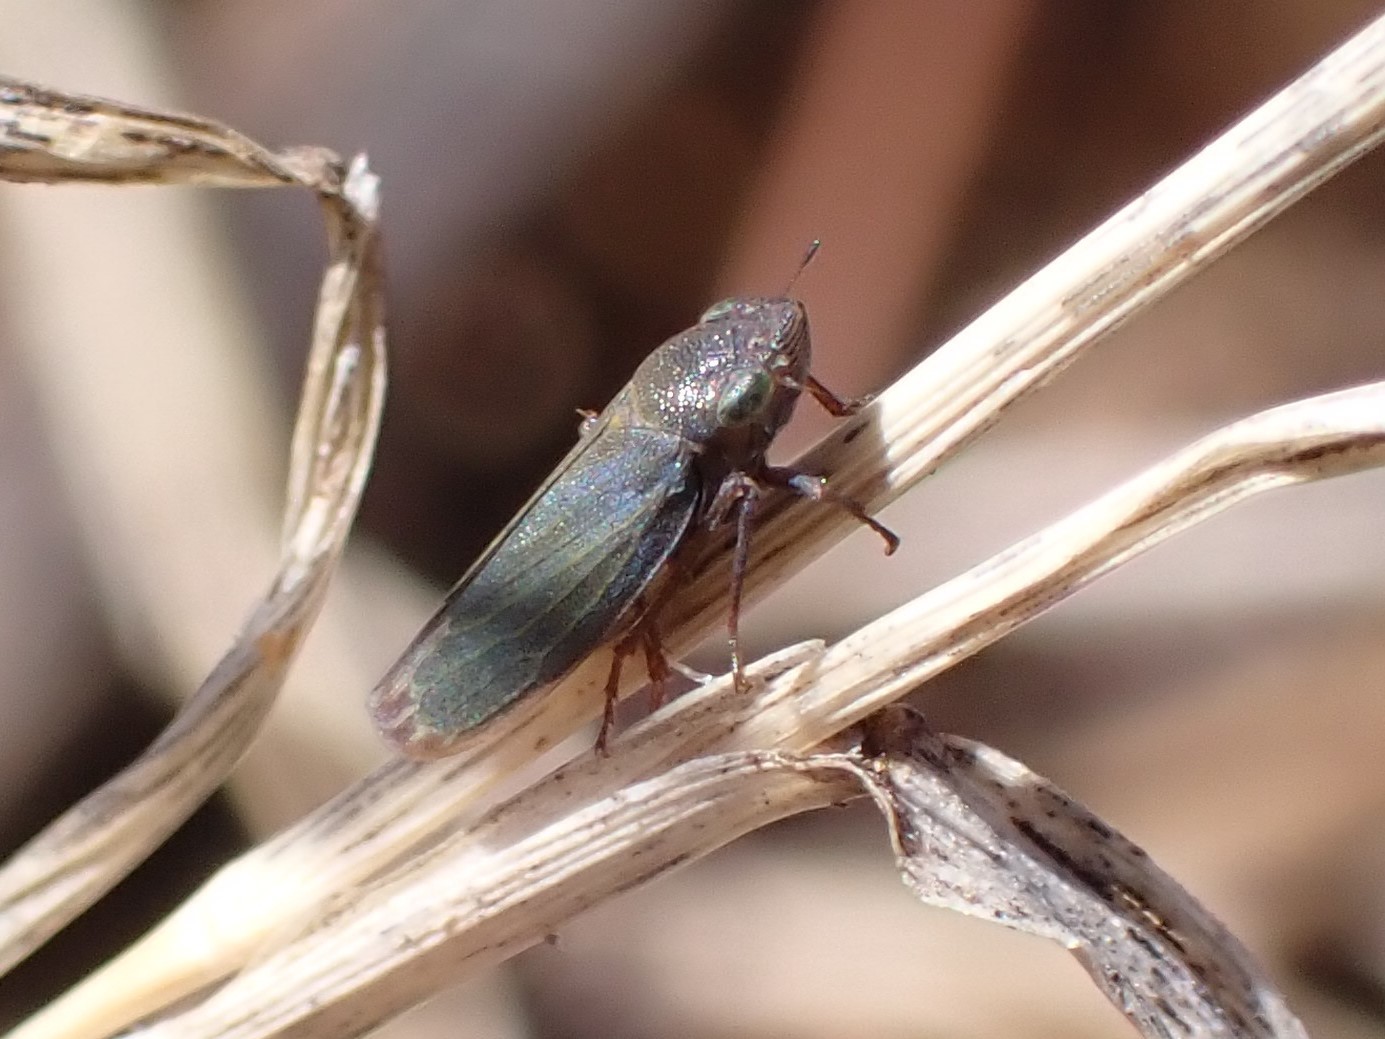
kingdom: Animalia
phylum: Arthropoda
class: Insecta
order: Hemiptera
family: Cicadellidae
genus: Helochara
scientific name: Helochara communis
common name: Bog leafhopper
